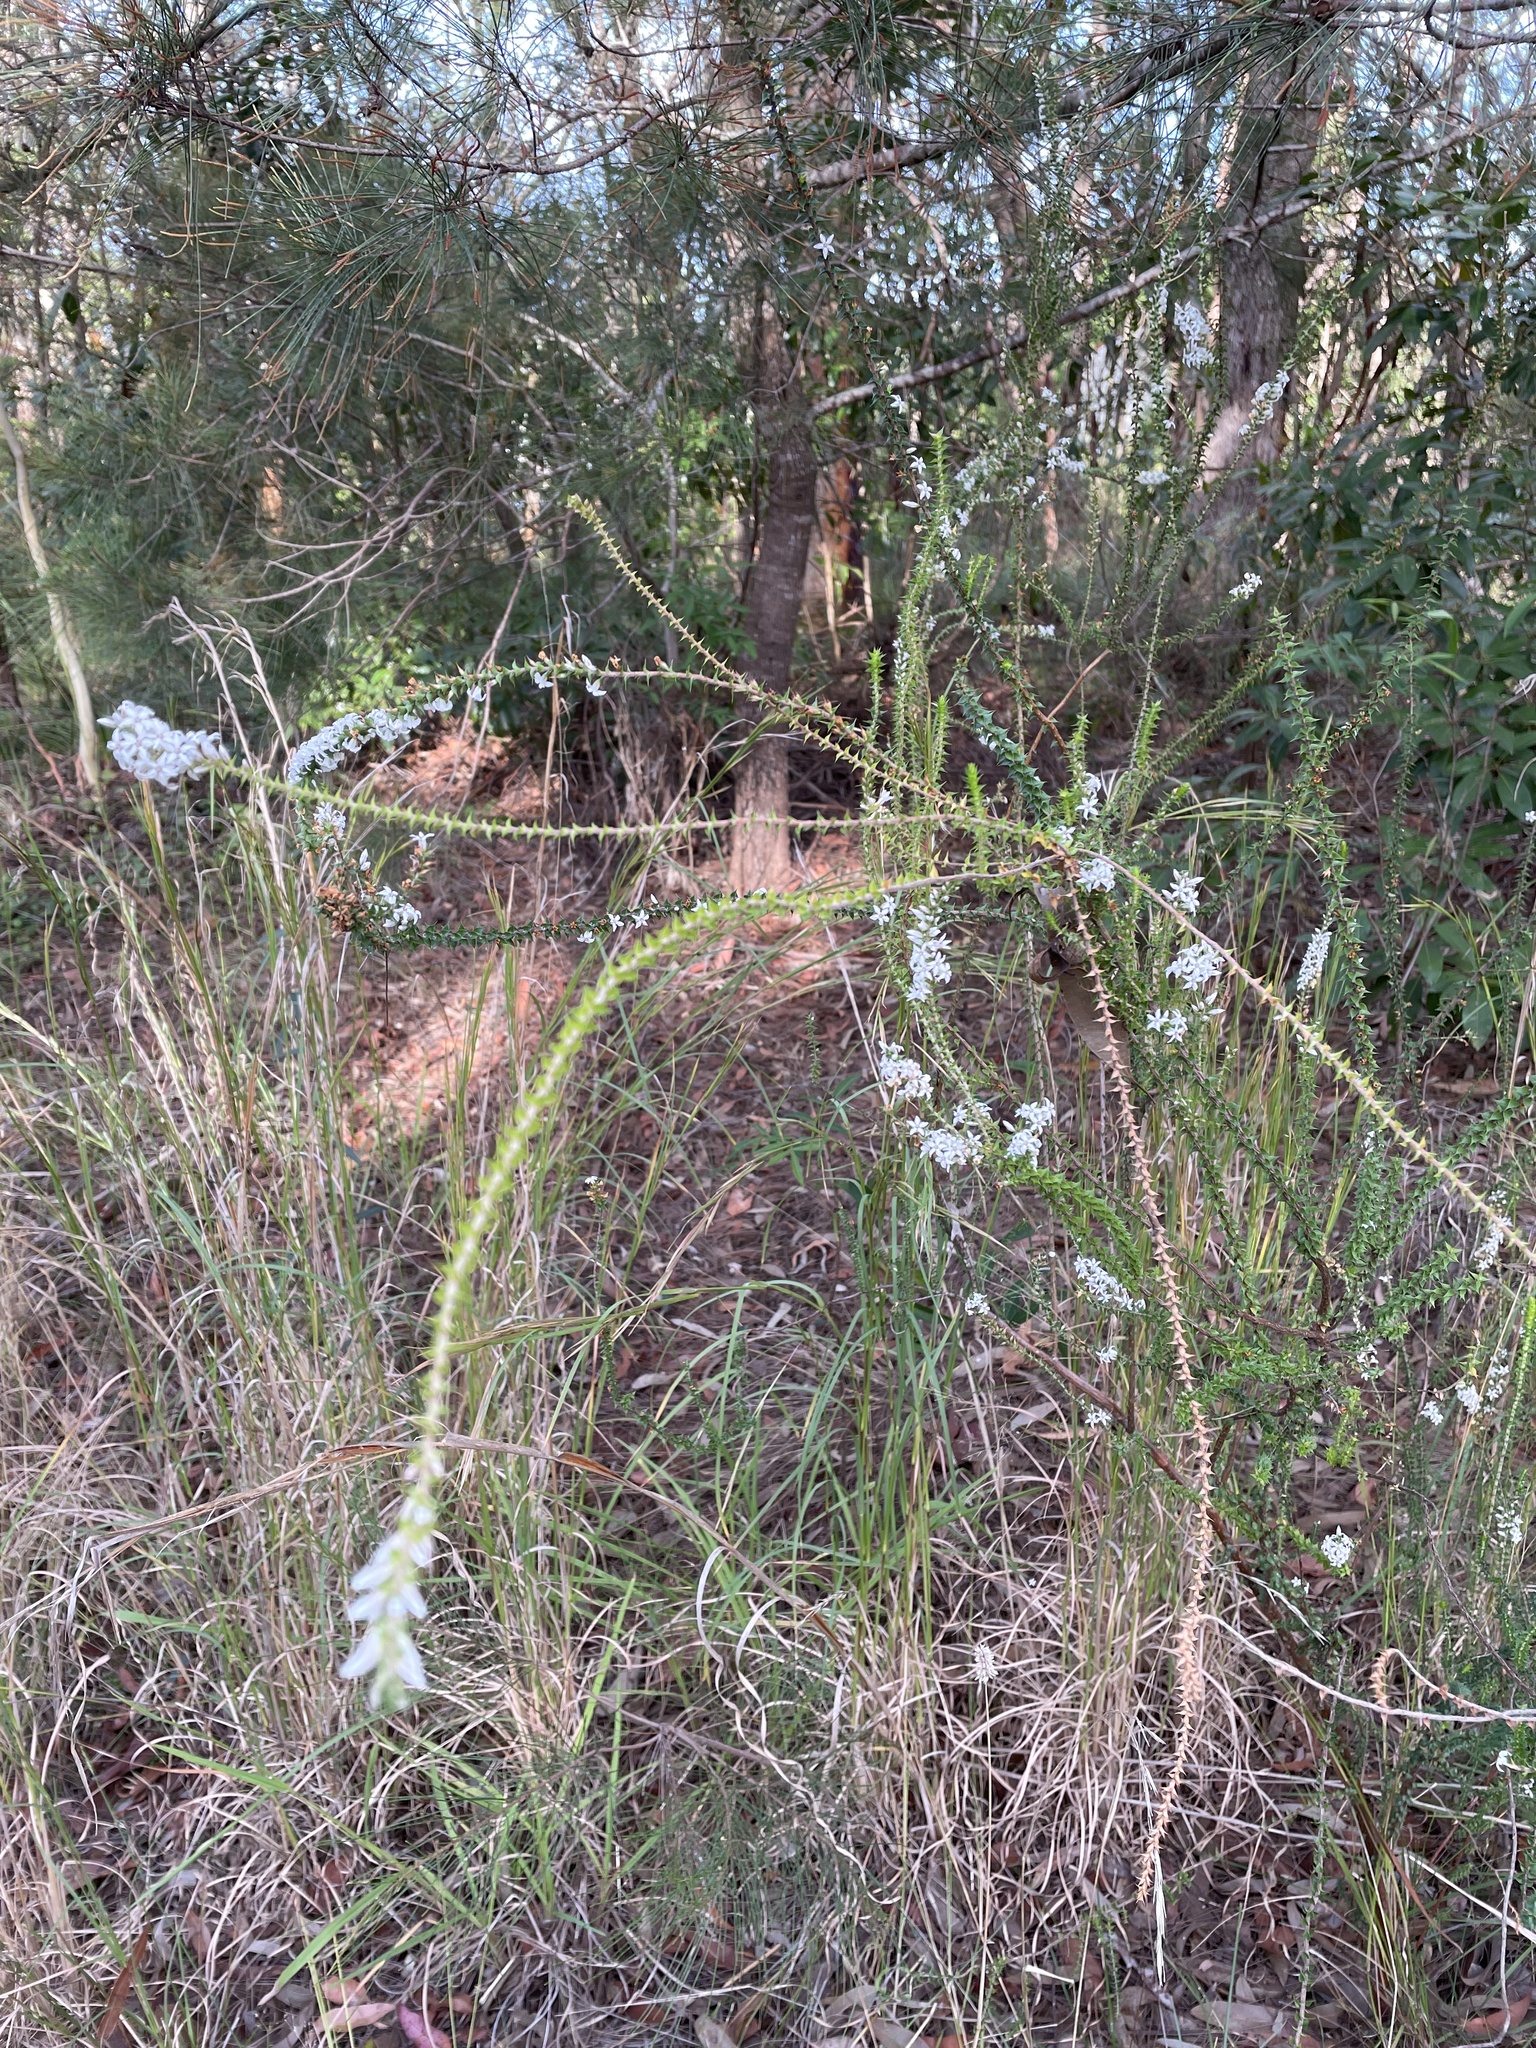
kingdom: Plantae
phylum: Tracheophyta
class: Magnoliopsida
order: Ericales
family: Ericaceae
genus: Epacris
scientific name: Epacris pulchella
